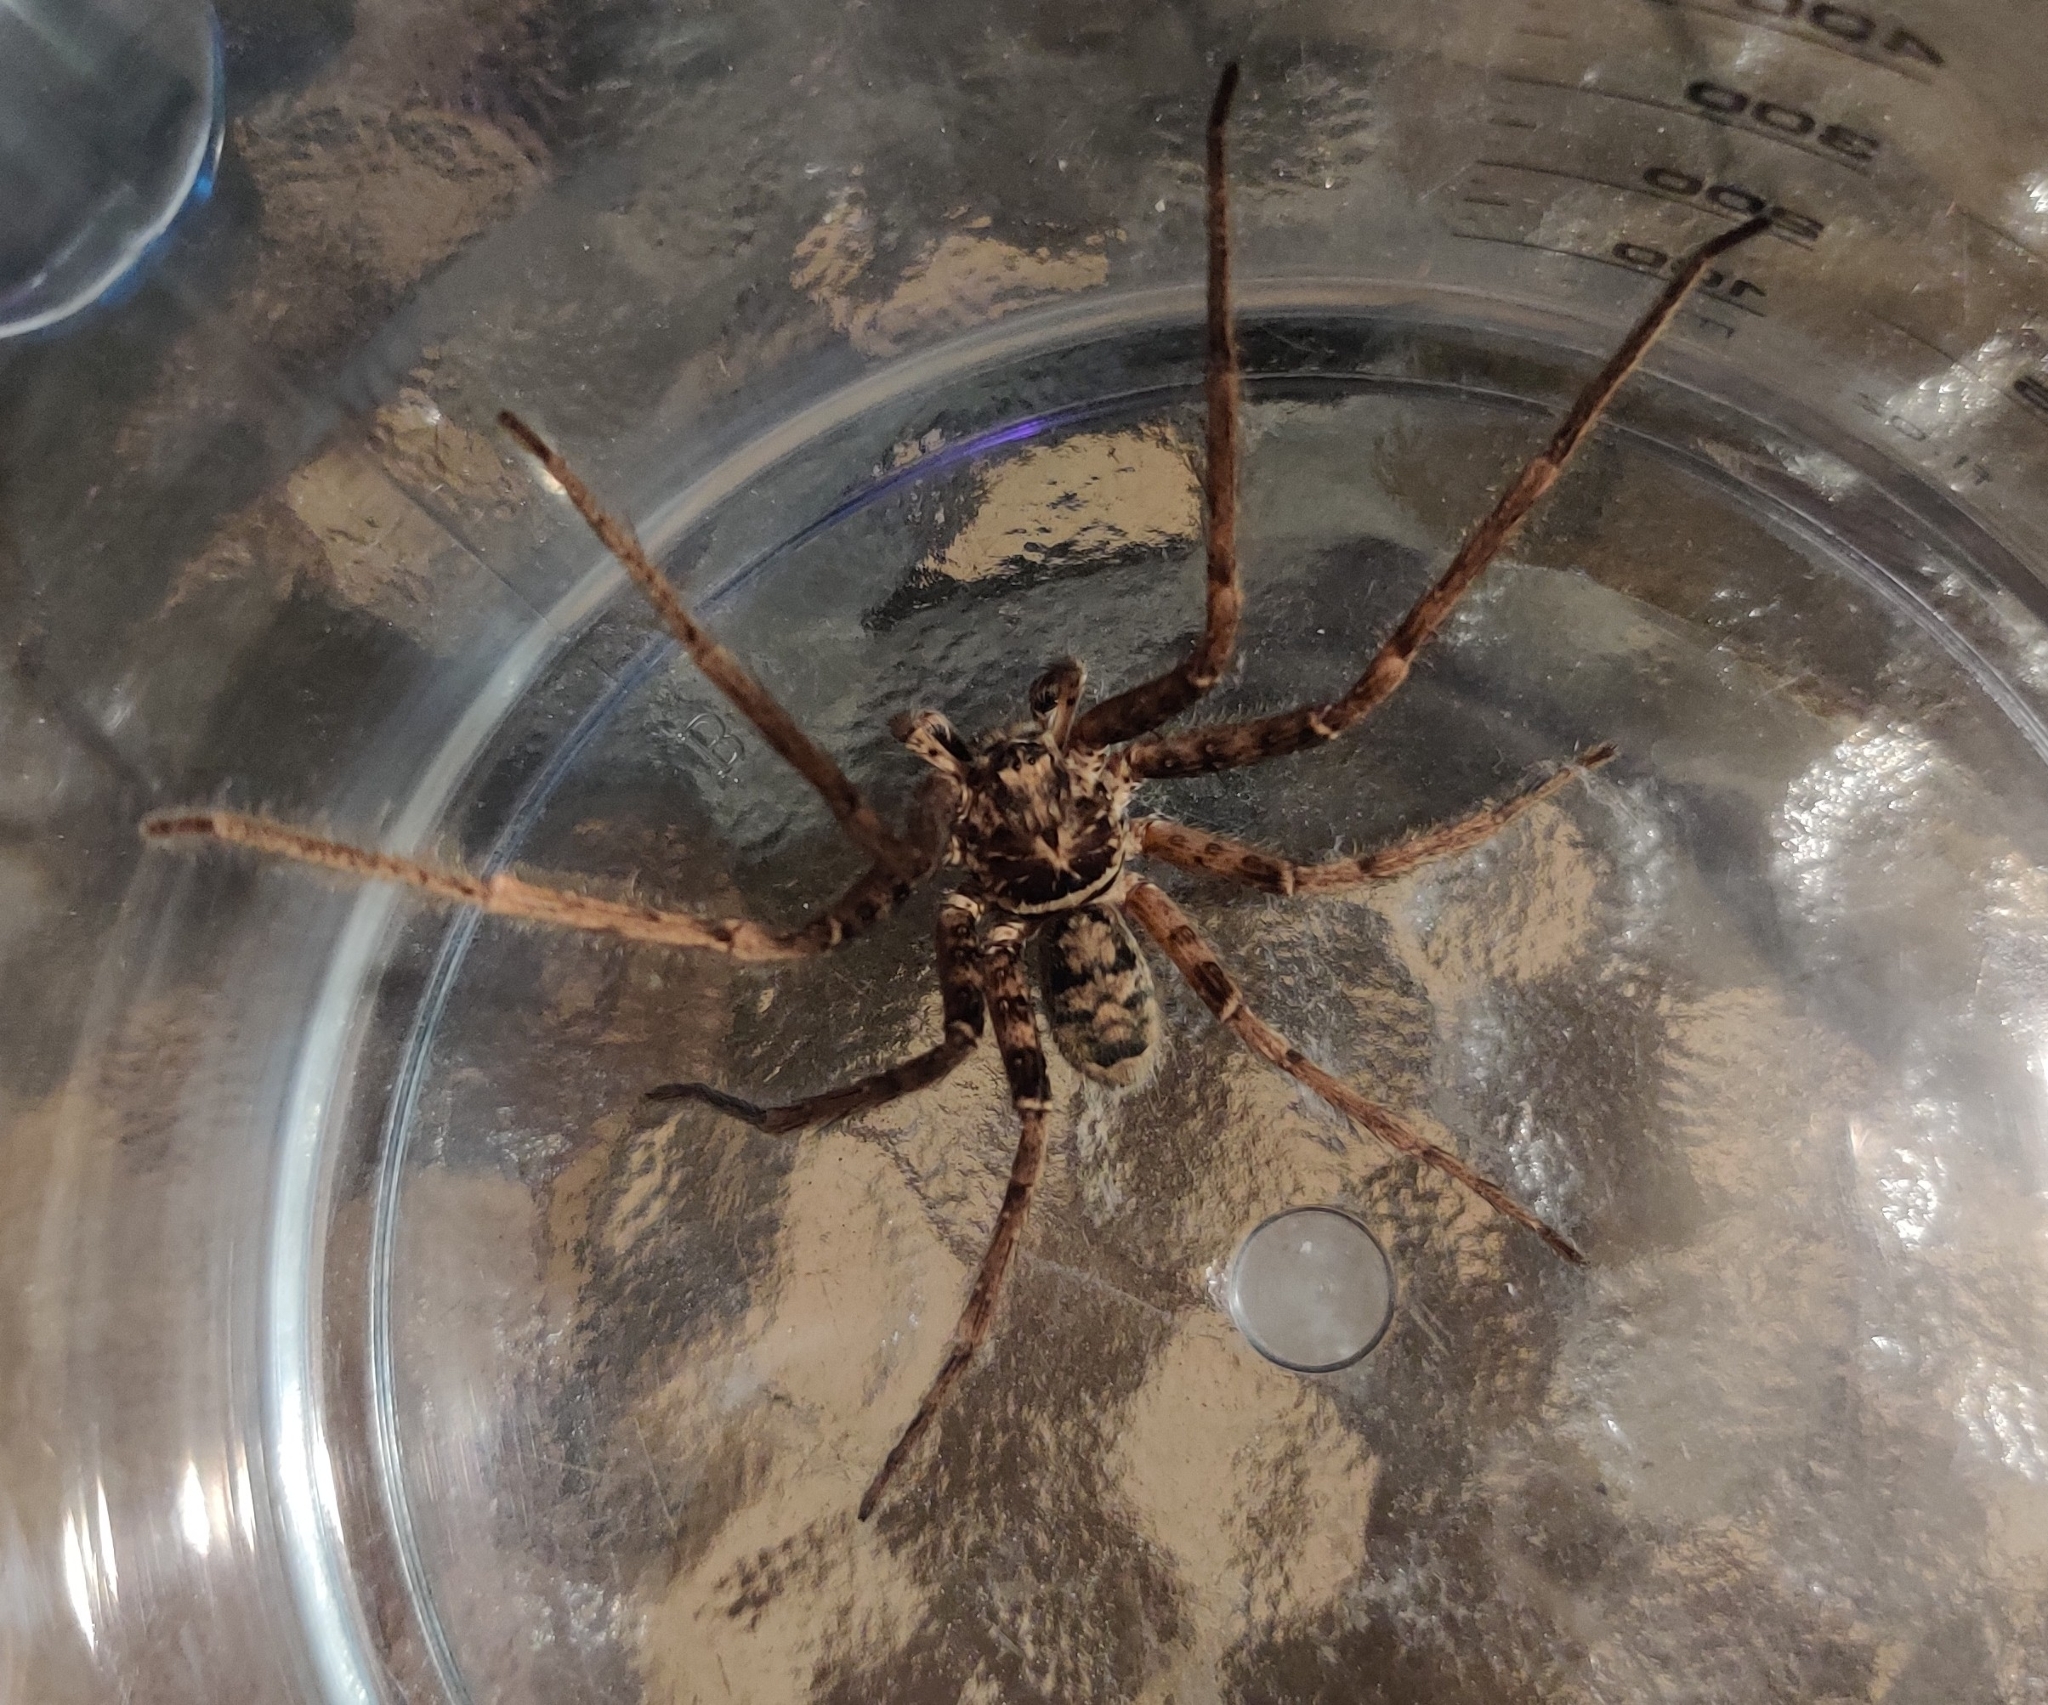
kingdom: Animalia
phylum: Arthropoda
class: Arachnida
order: Araneae
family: Sparassidae
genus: Heteropoda
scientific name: Heteropoda longipes
